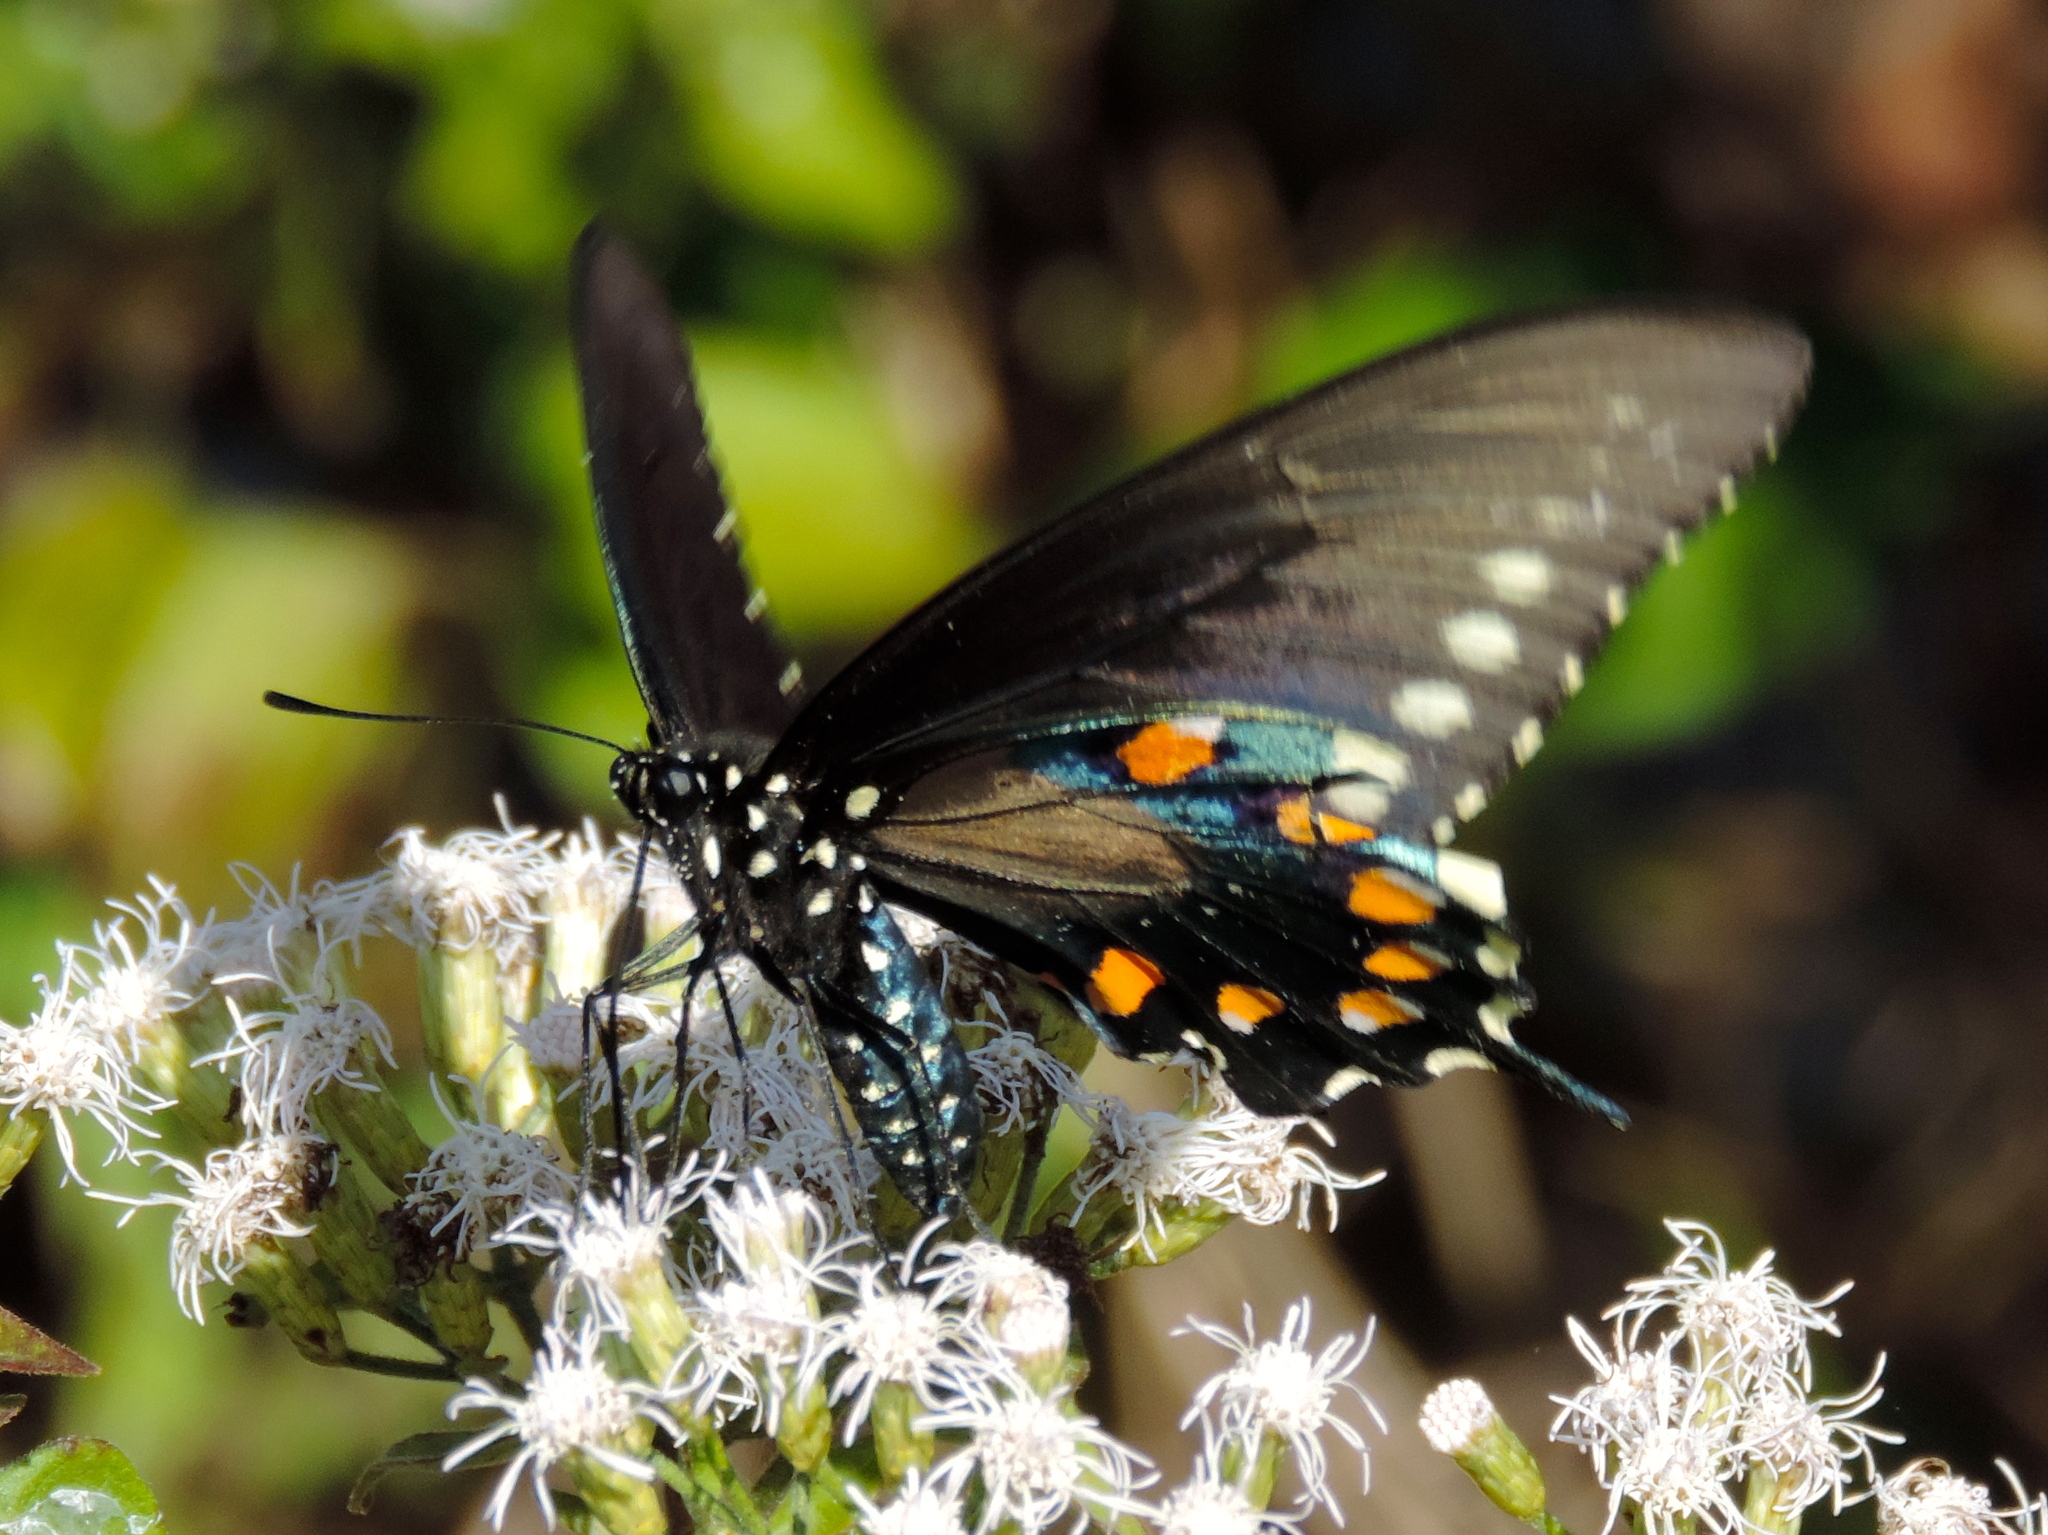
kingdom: Animalia
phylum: Arthropoda
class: Insecta
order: Lepidoptera
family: Papilionidae
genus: Battus
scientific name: Battus philenor
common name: Pipevine swallowtail
